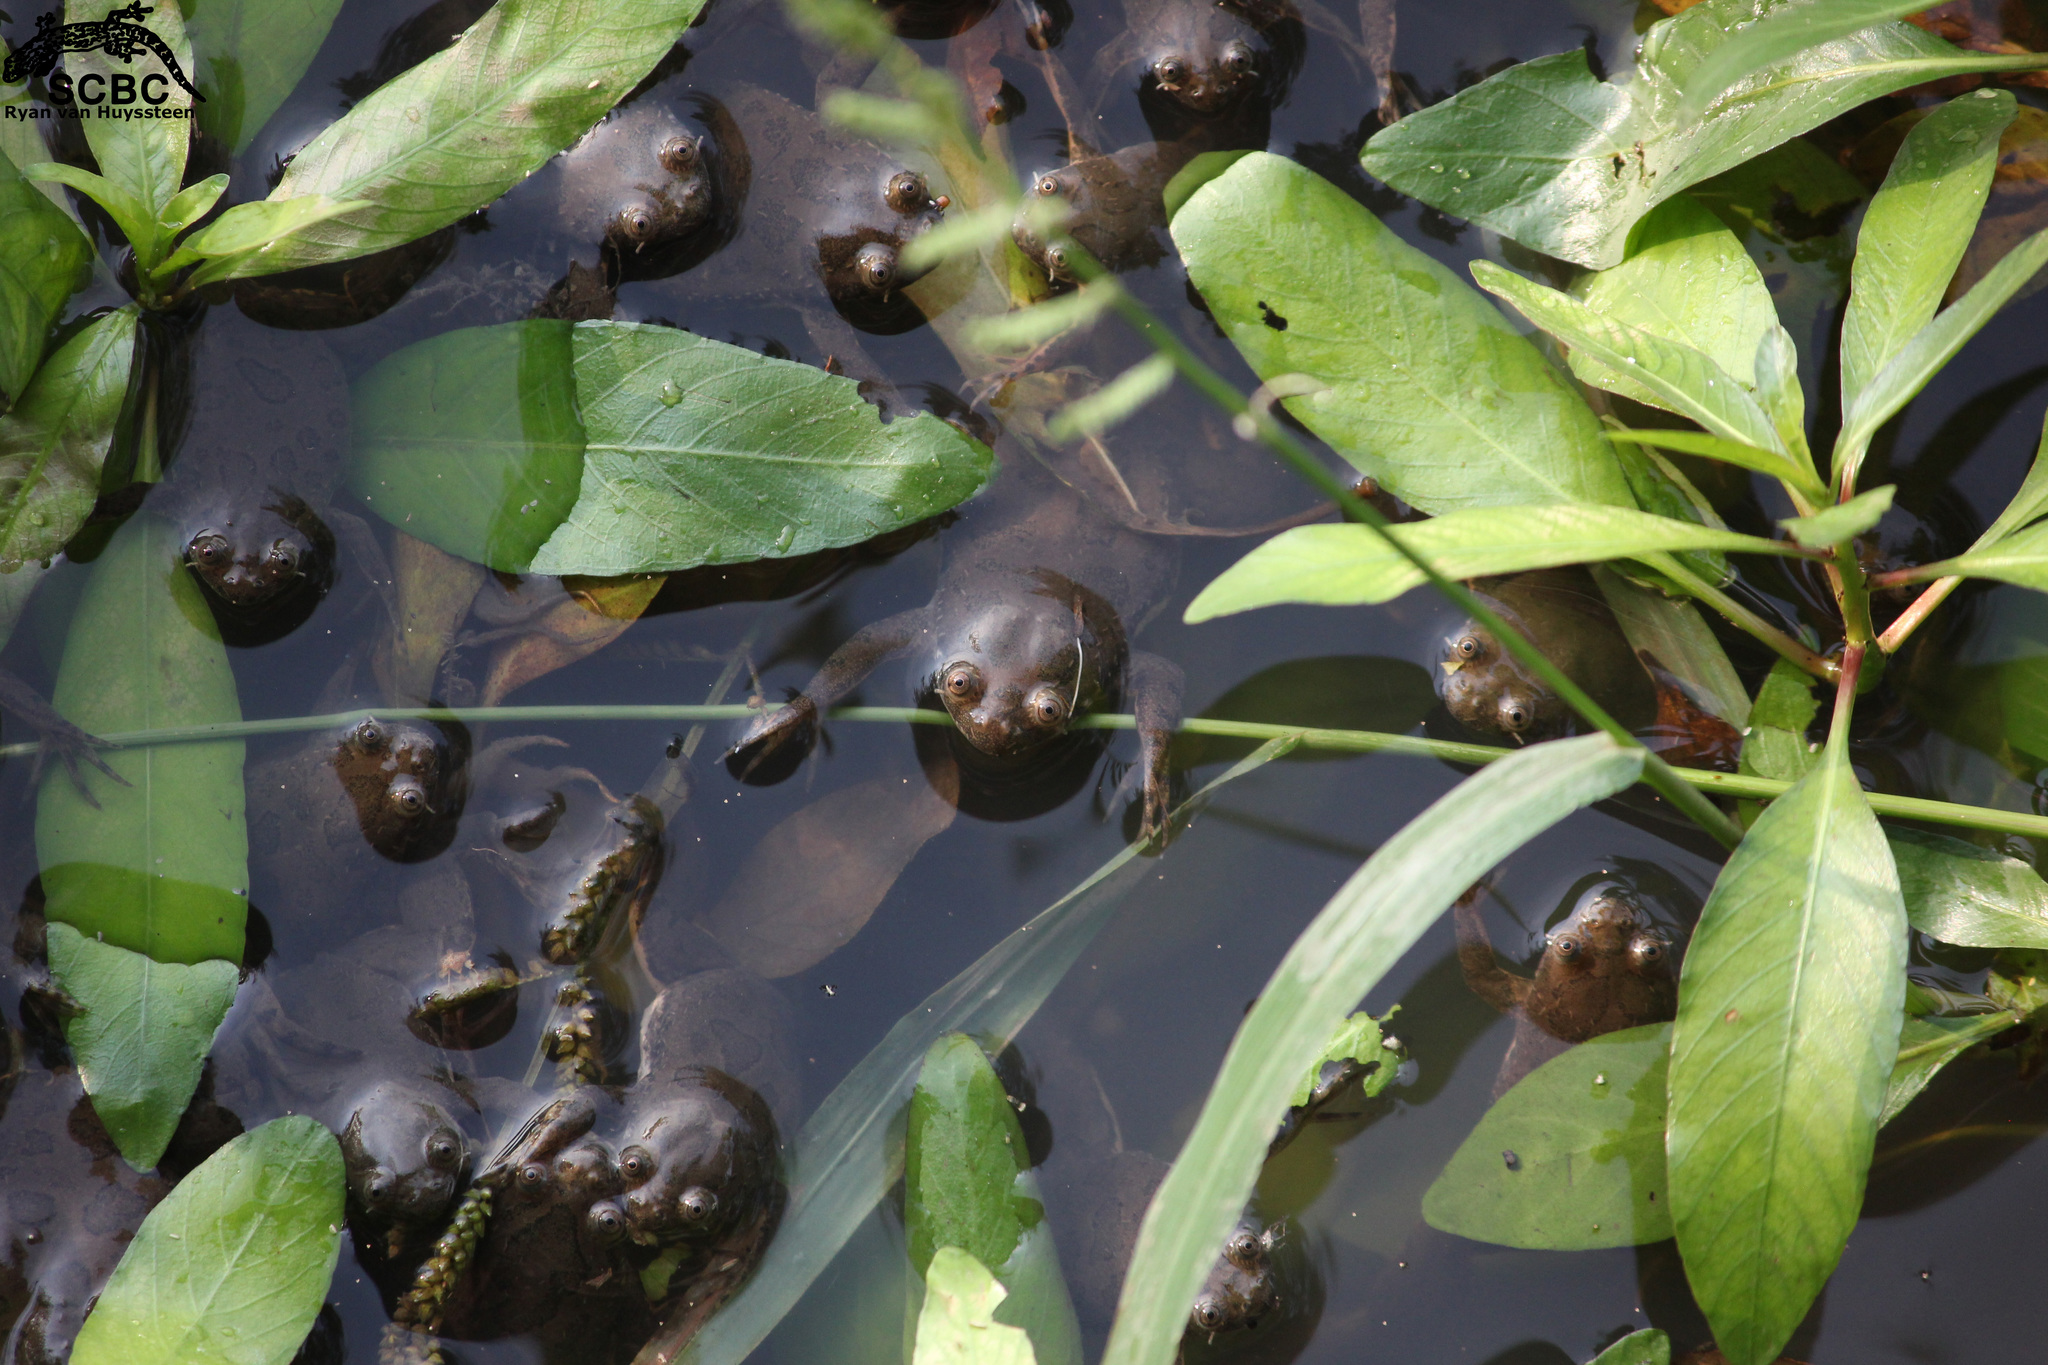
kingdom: Animalia
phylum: Chordata
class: Amphibia
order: Anura
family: Pipidae
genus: Xenopus
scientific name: Xenopus muelleri
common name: Muller's clawed frog
